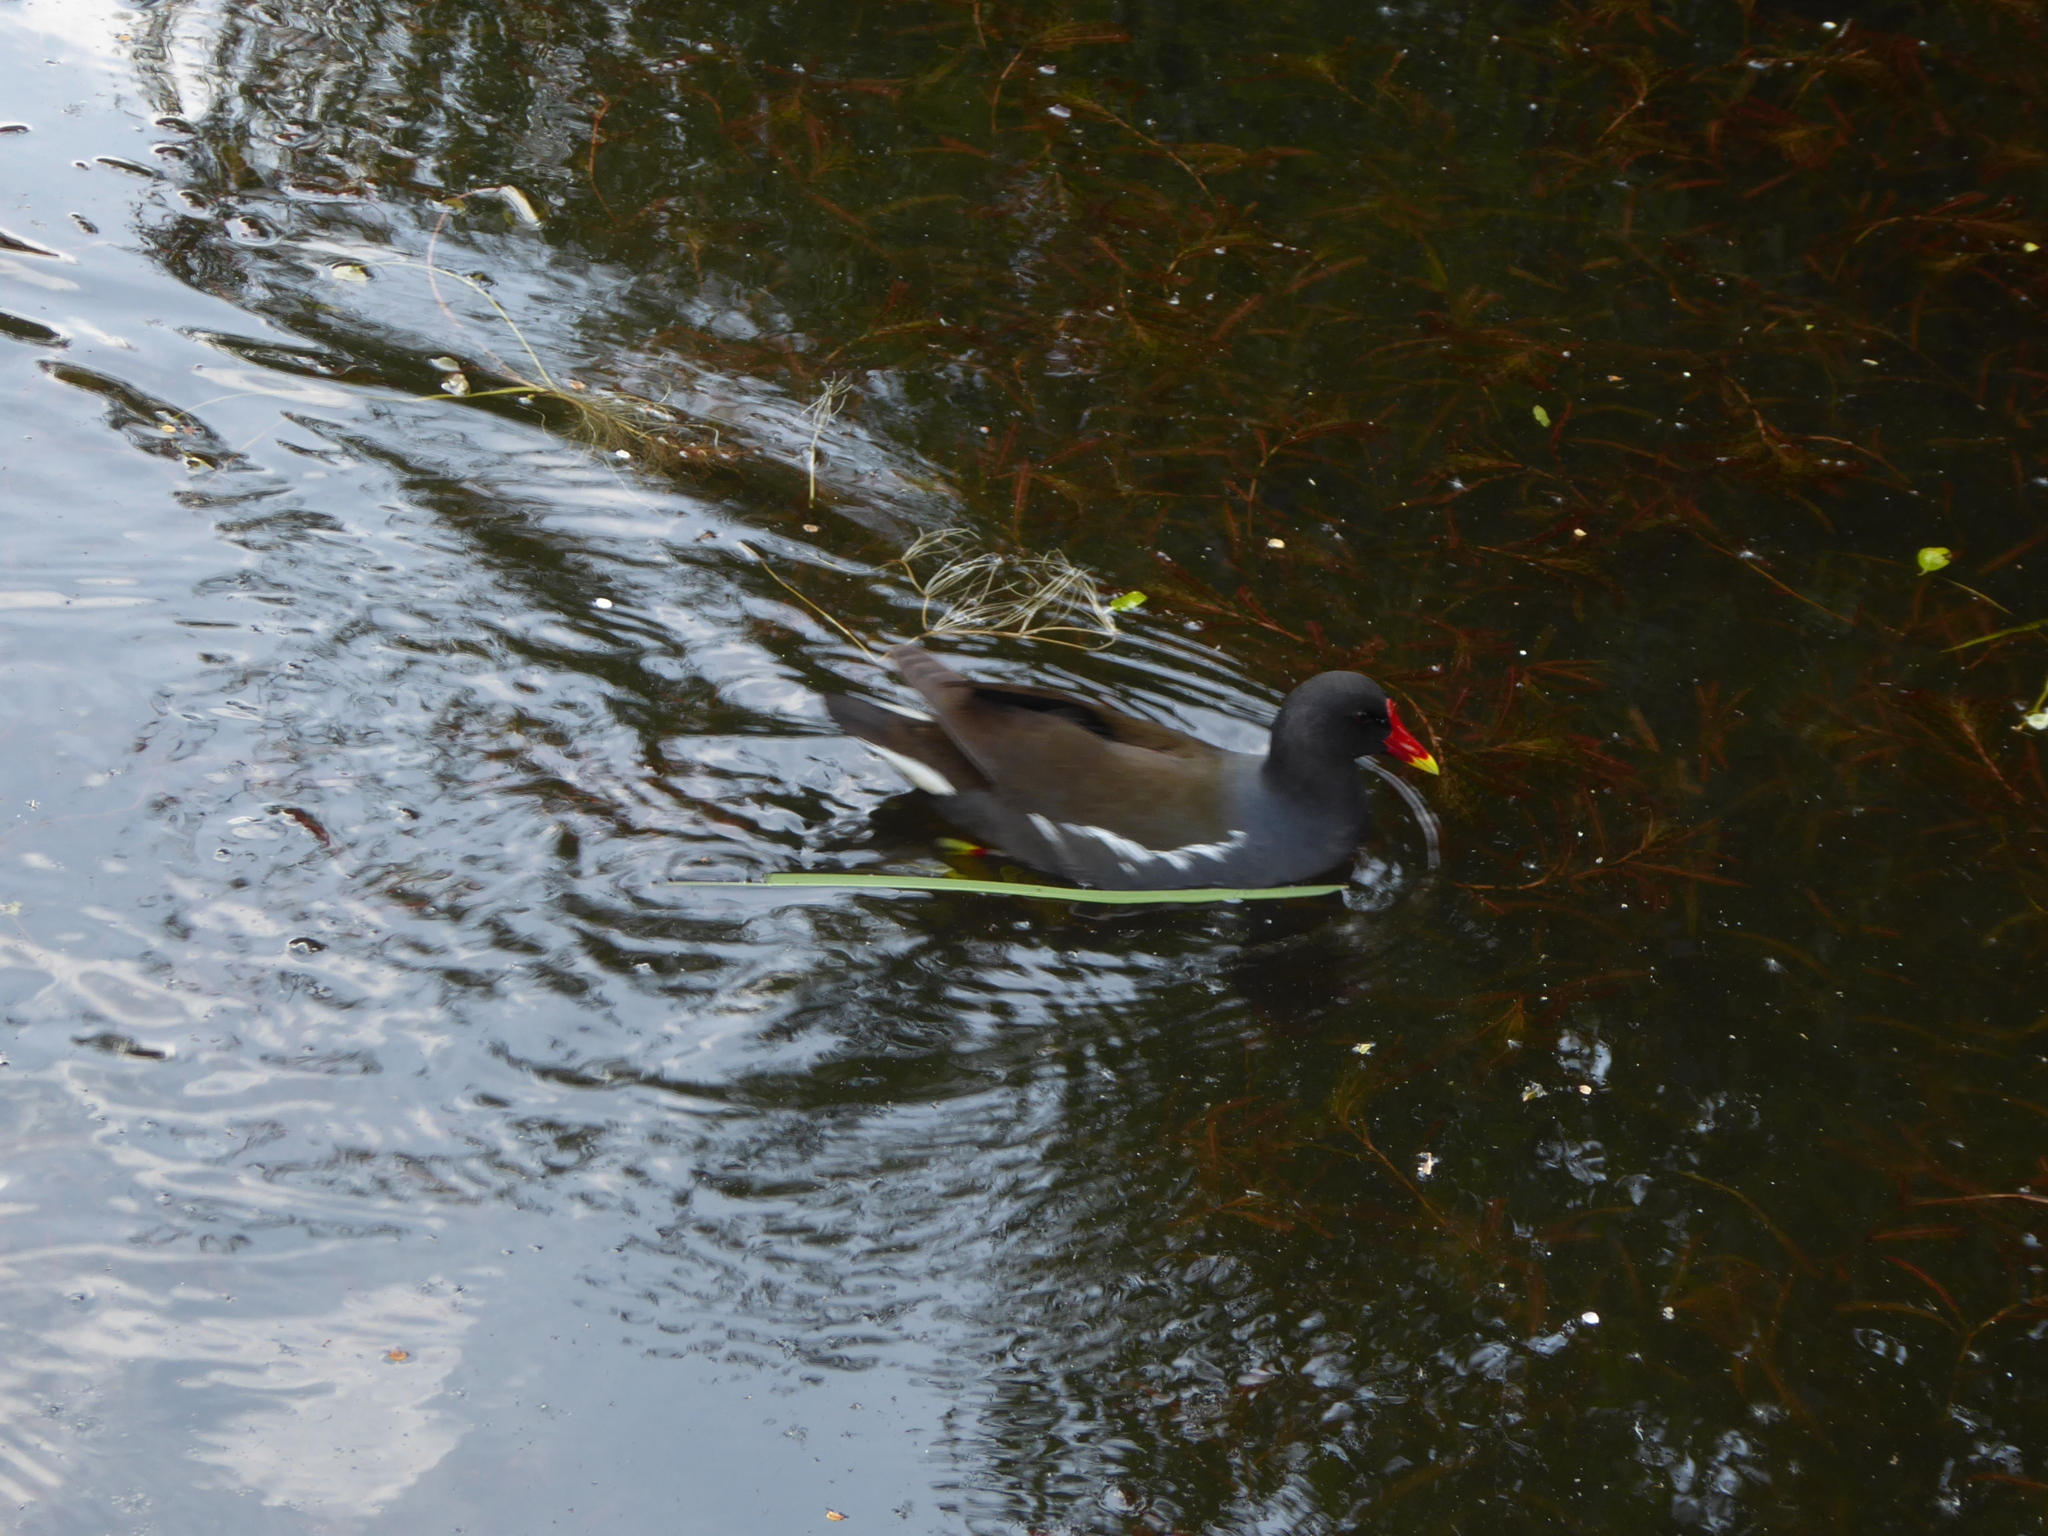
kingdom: Animalia
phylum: Chordata
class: Aves
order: Gruiformes
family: Rallidae
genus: Gallinula
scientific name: Gallinula chloropus
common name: Common moorhen
